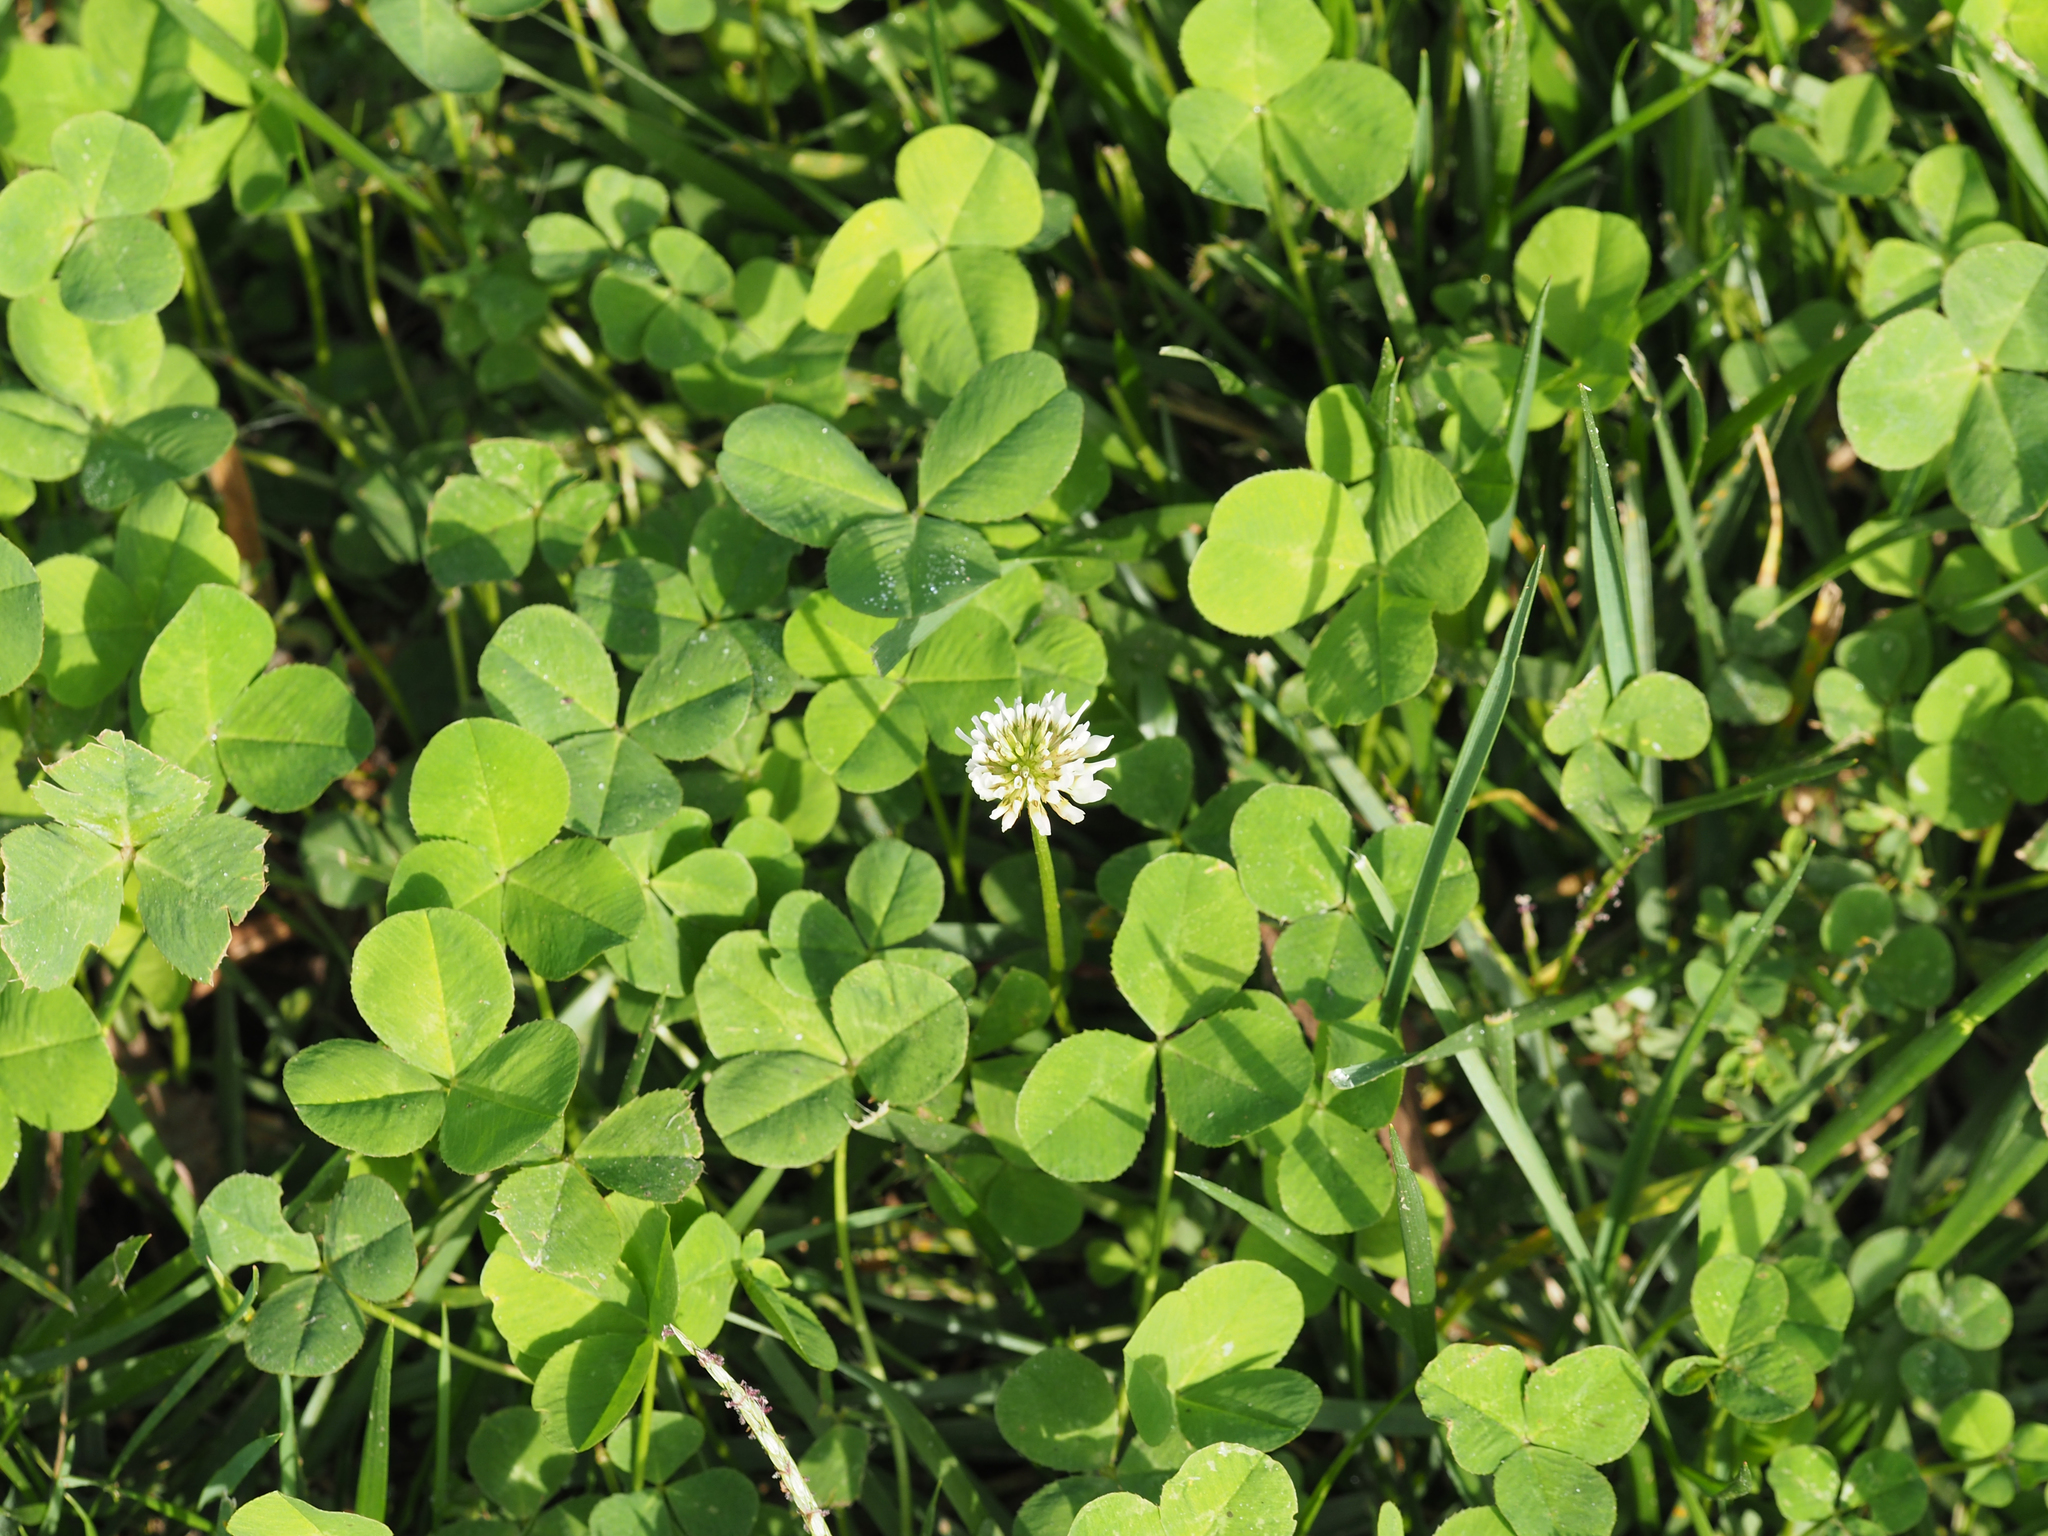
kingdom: Plantae
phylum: Tracheophyta
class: Magnoliopsida
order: Fabales
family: Fabaceae
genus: Trifolium
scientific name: Trifolium repens
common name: White clover
